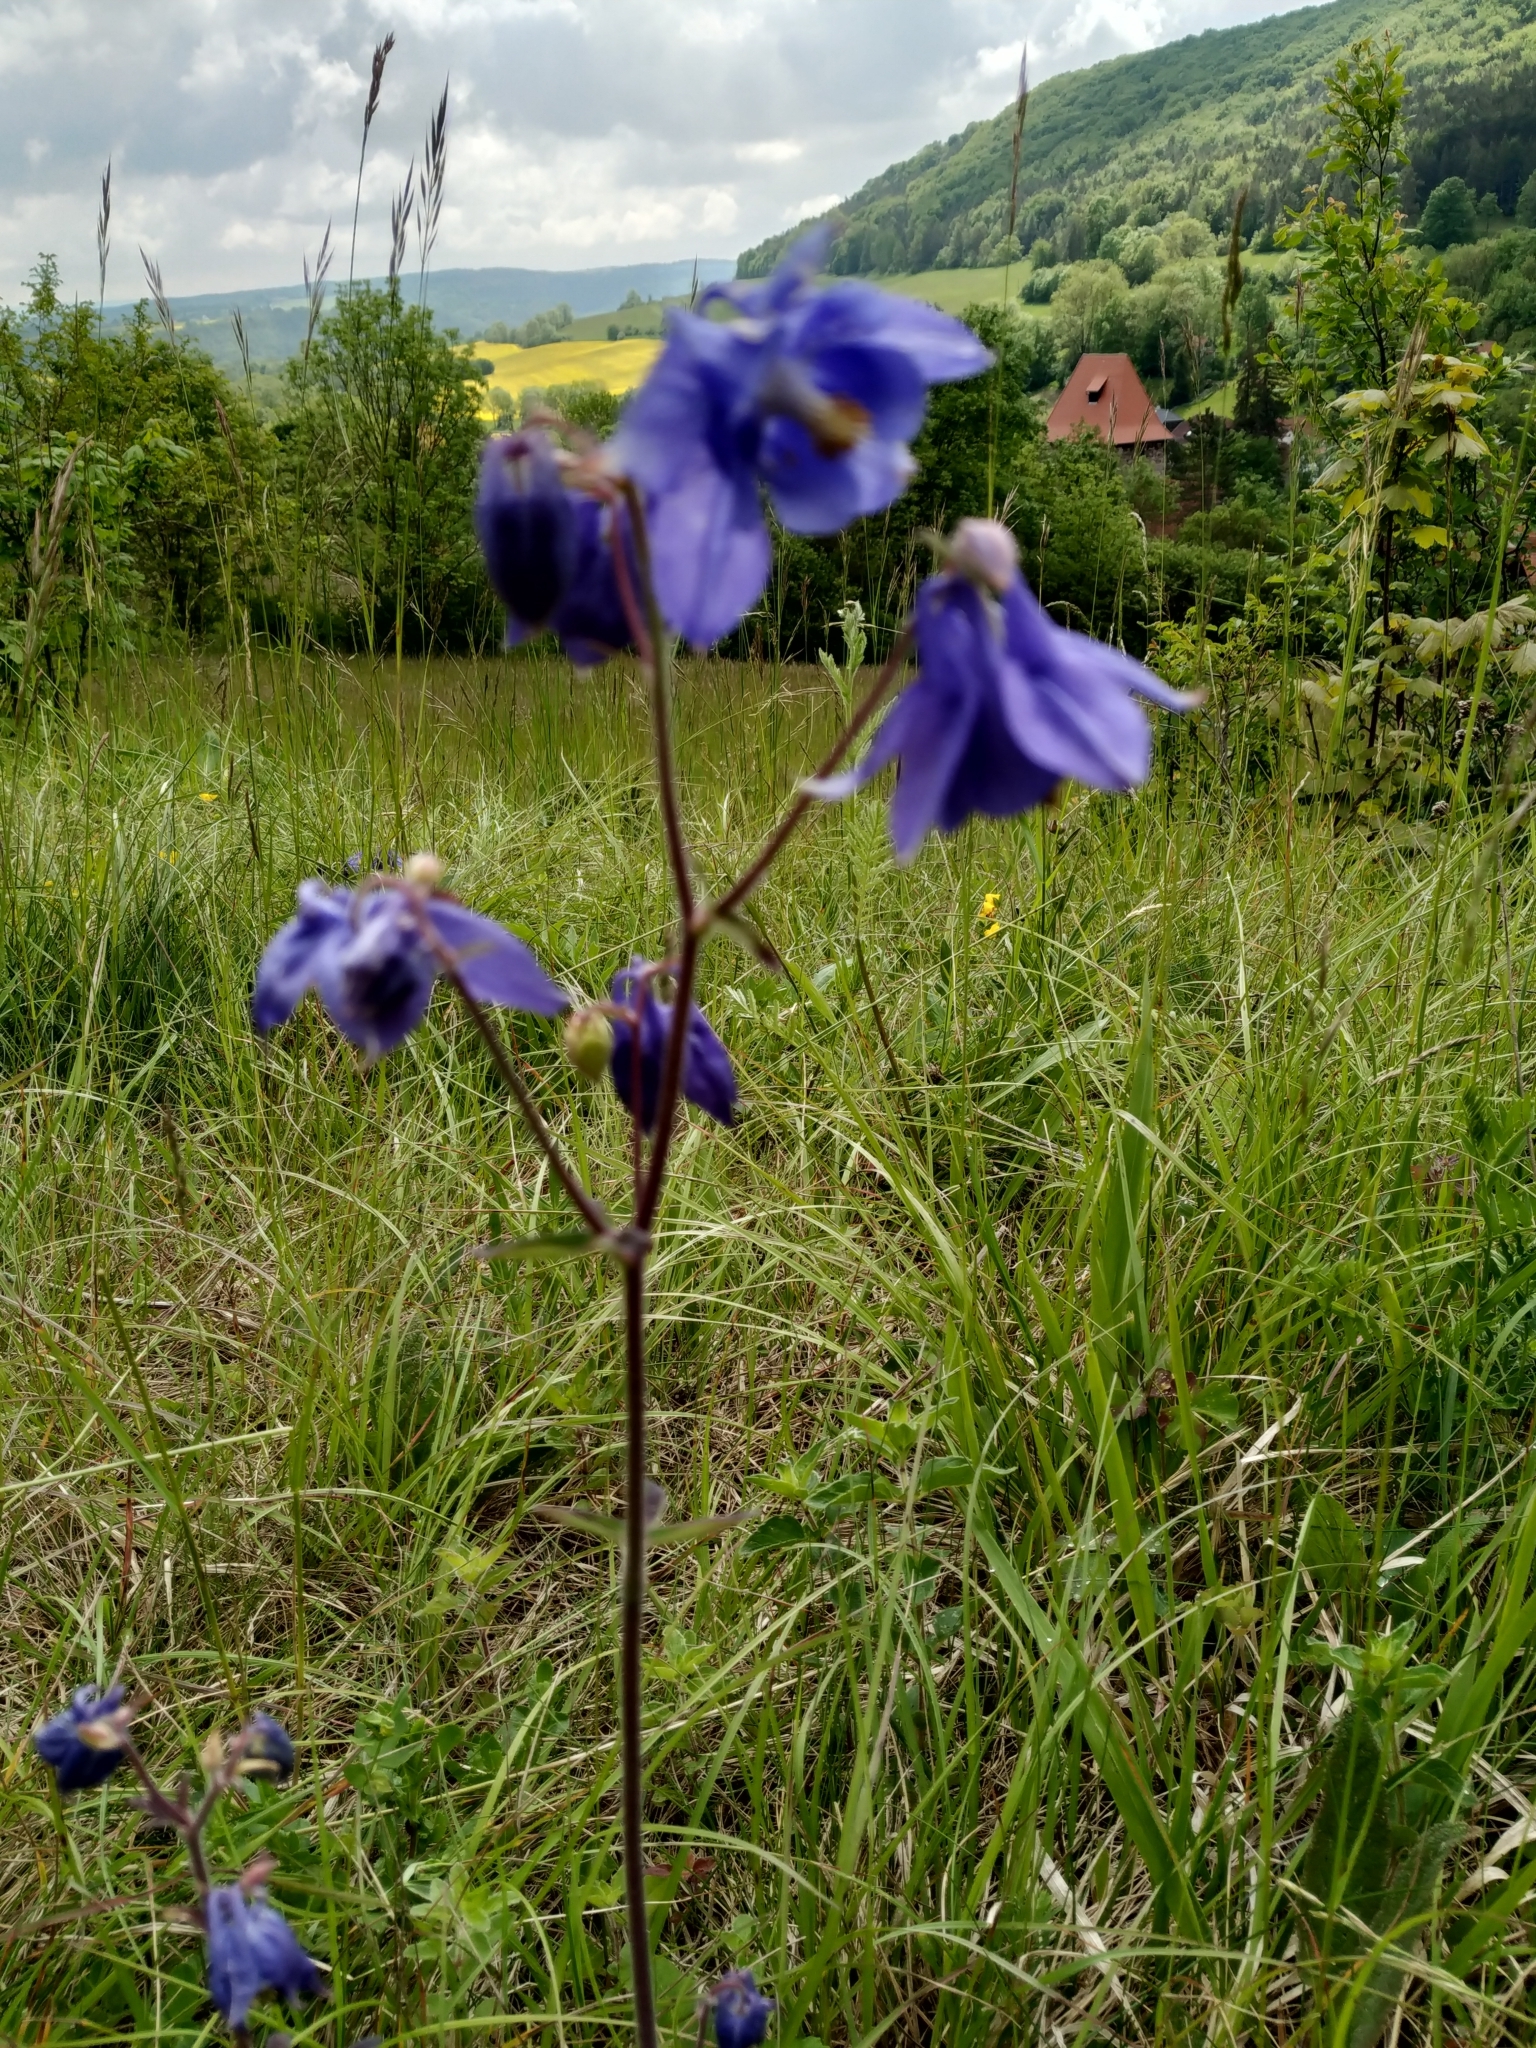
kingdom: Plantae
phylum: Tracheophyta
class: Magnoliopsida
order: Ranunculales
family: Ranunculaceae
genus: Aquilegia
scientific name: Aquilegia vulgaris
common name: Columbine
